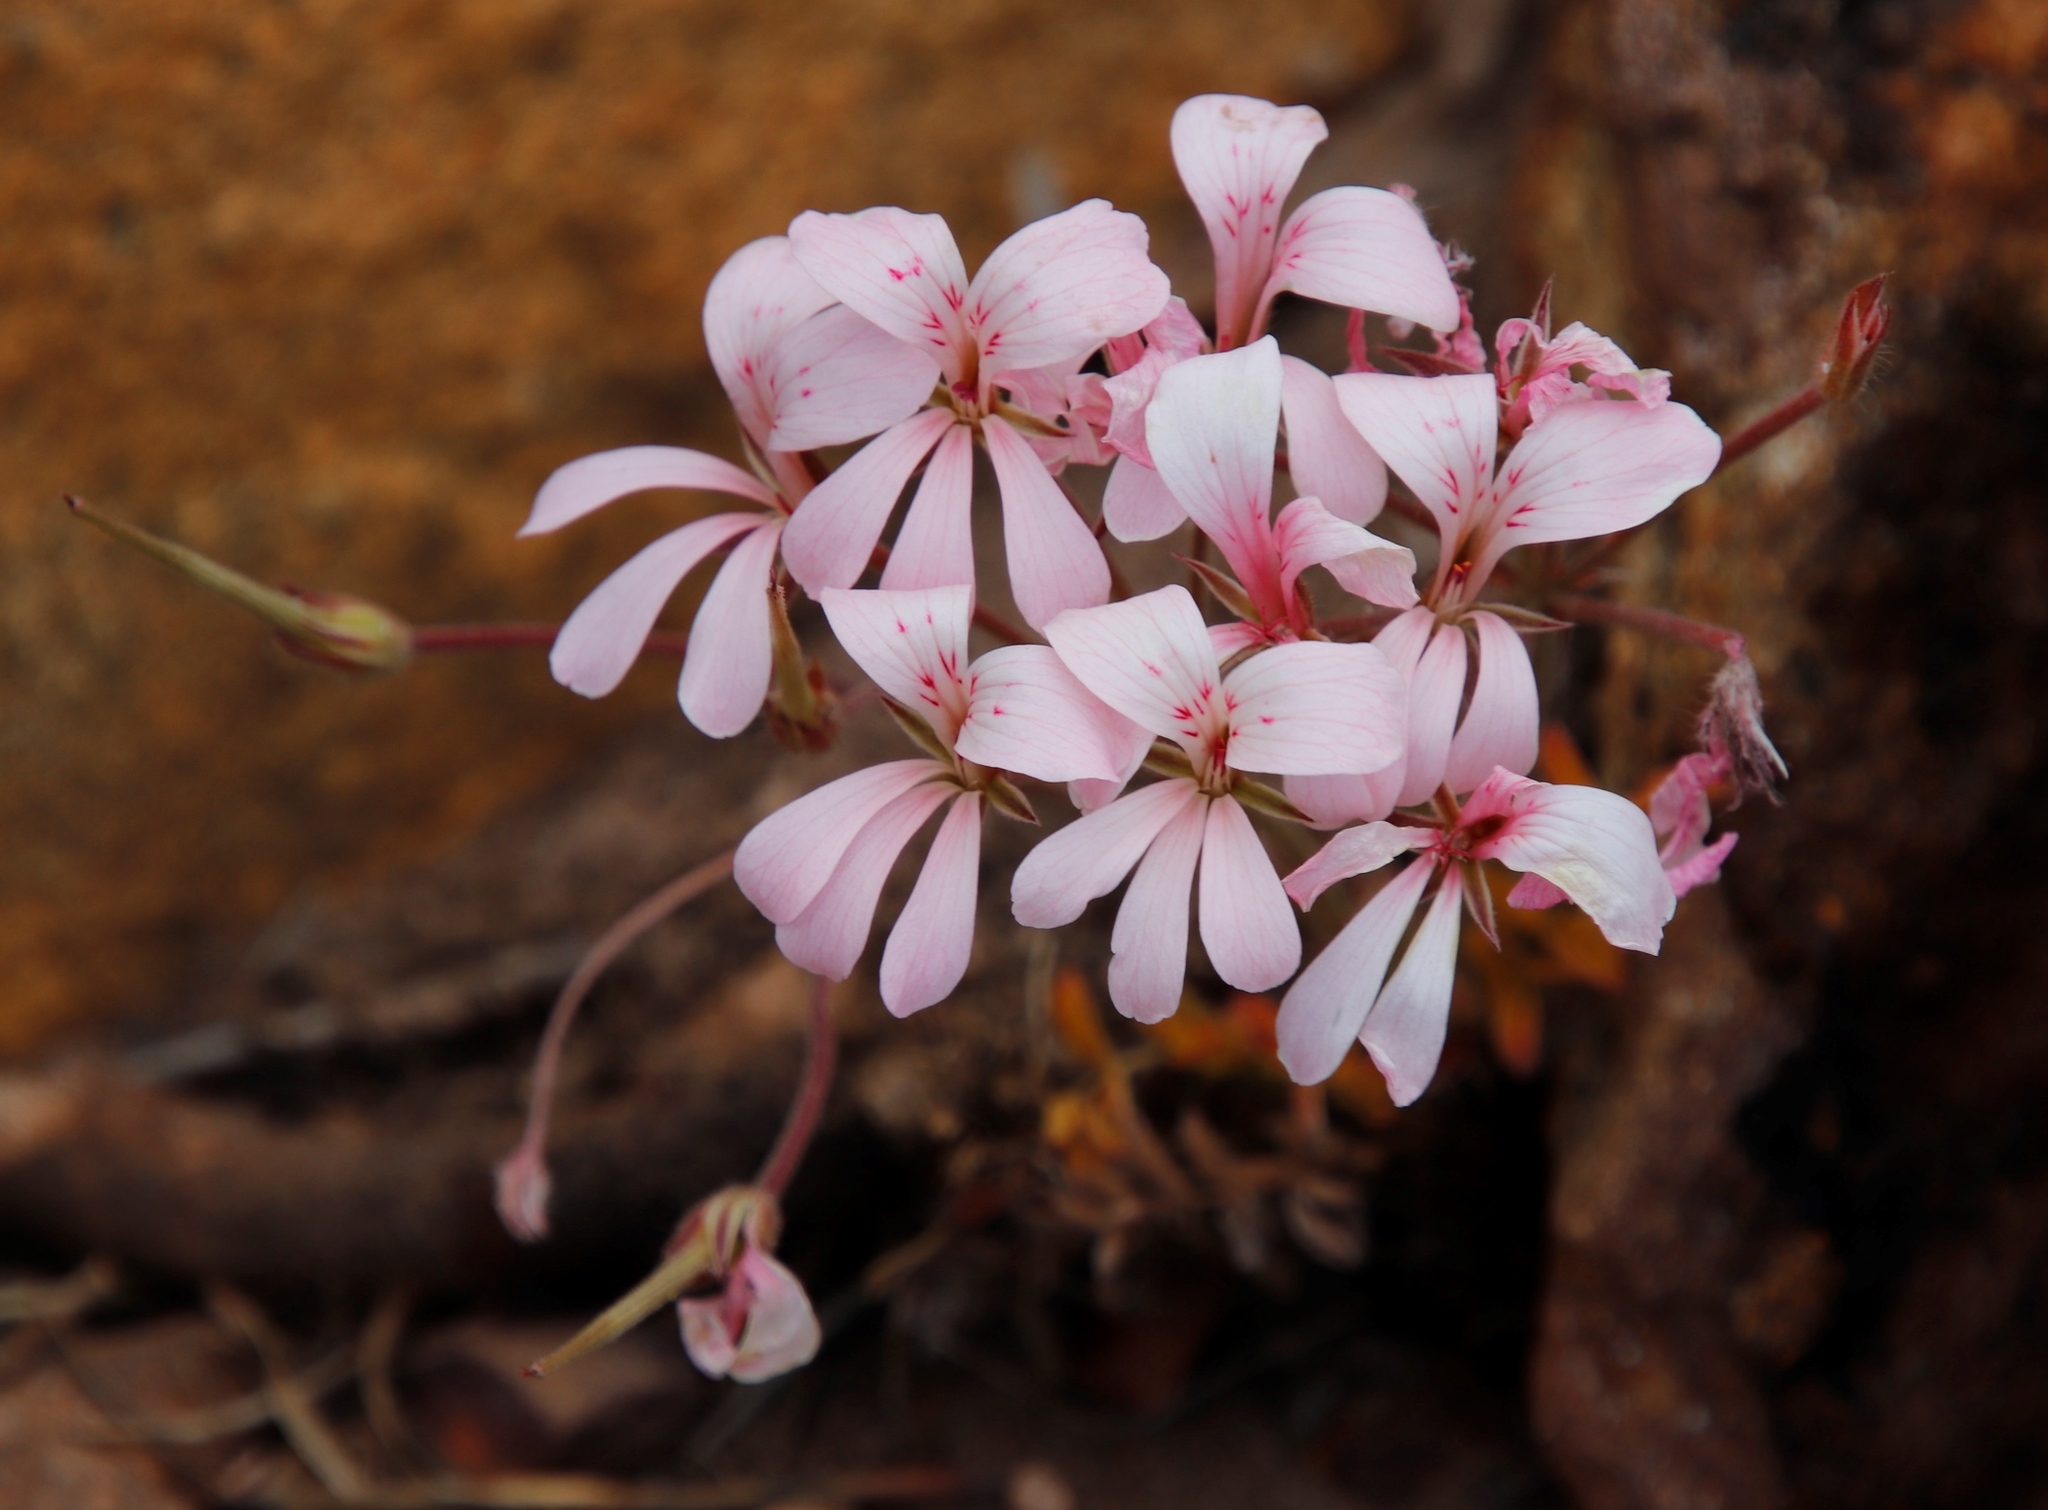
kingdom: Plantae
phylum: Tracheophyta
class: Magnoliopsida
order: Geraniales
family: Geraniaceae
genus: Pelargonium
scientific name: Pelargonium pinnatum
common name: Pinnated pelargonium
